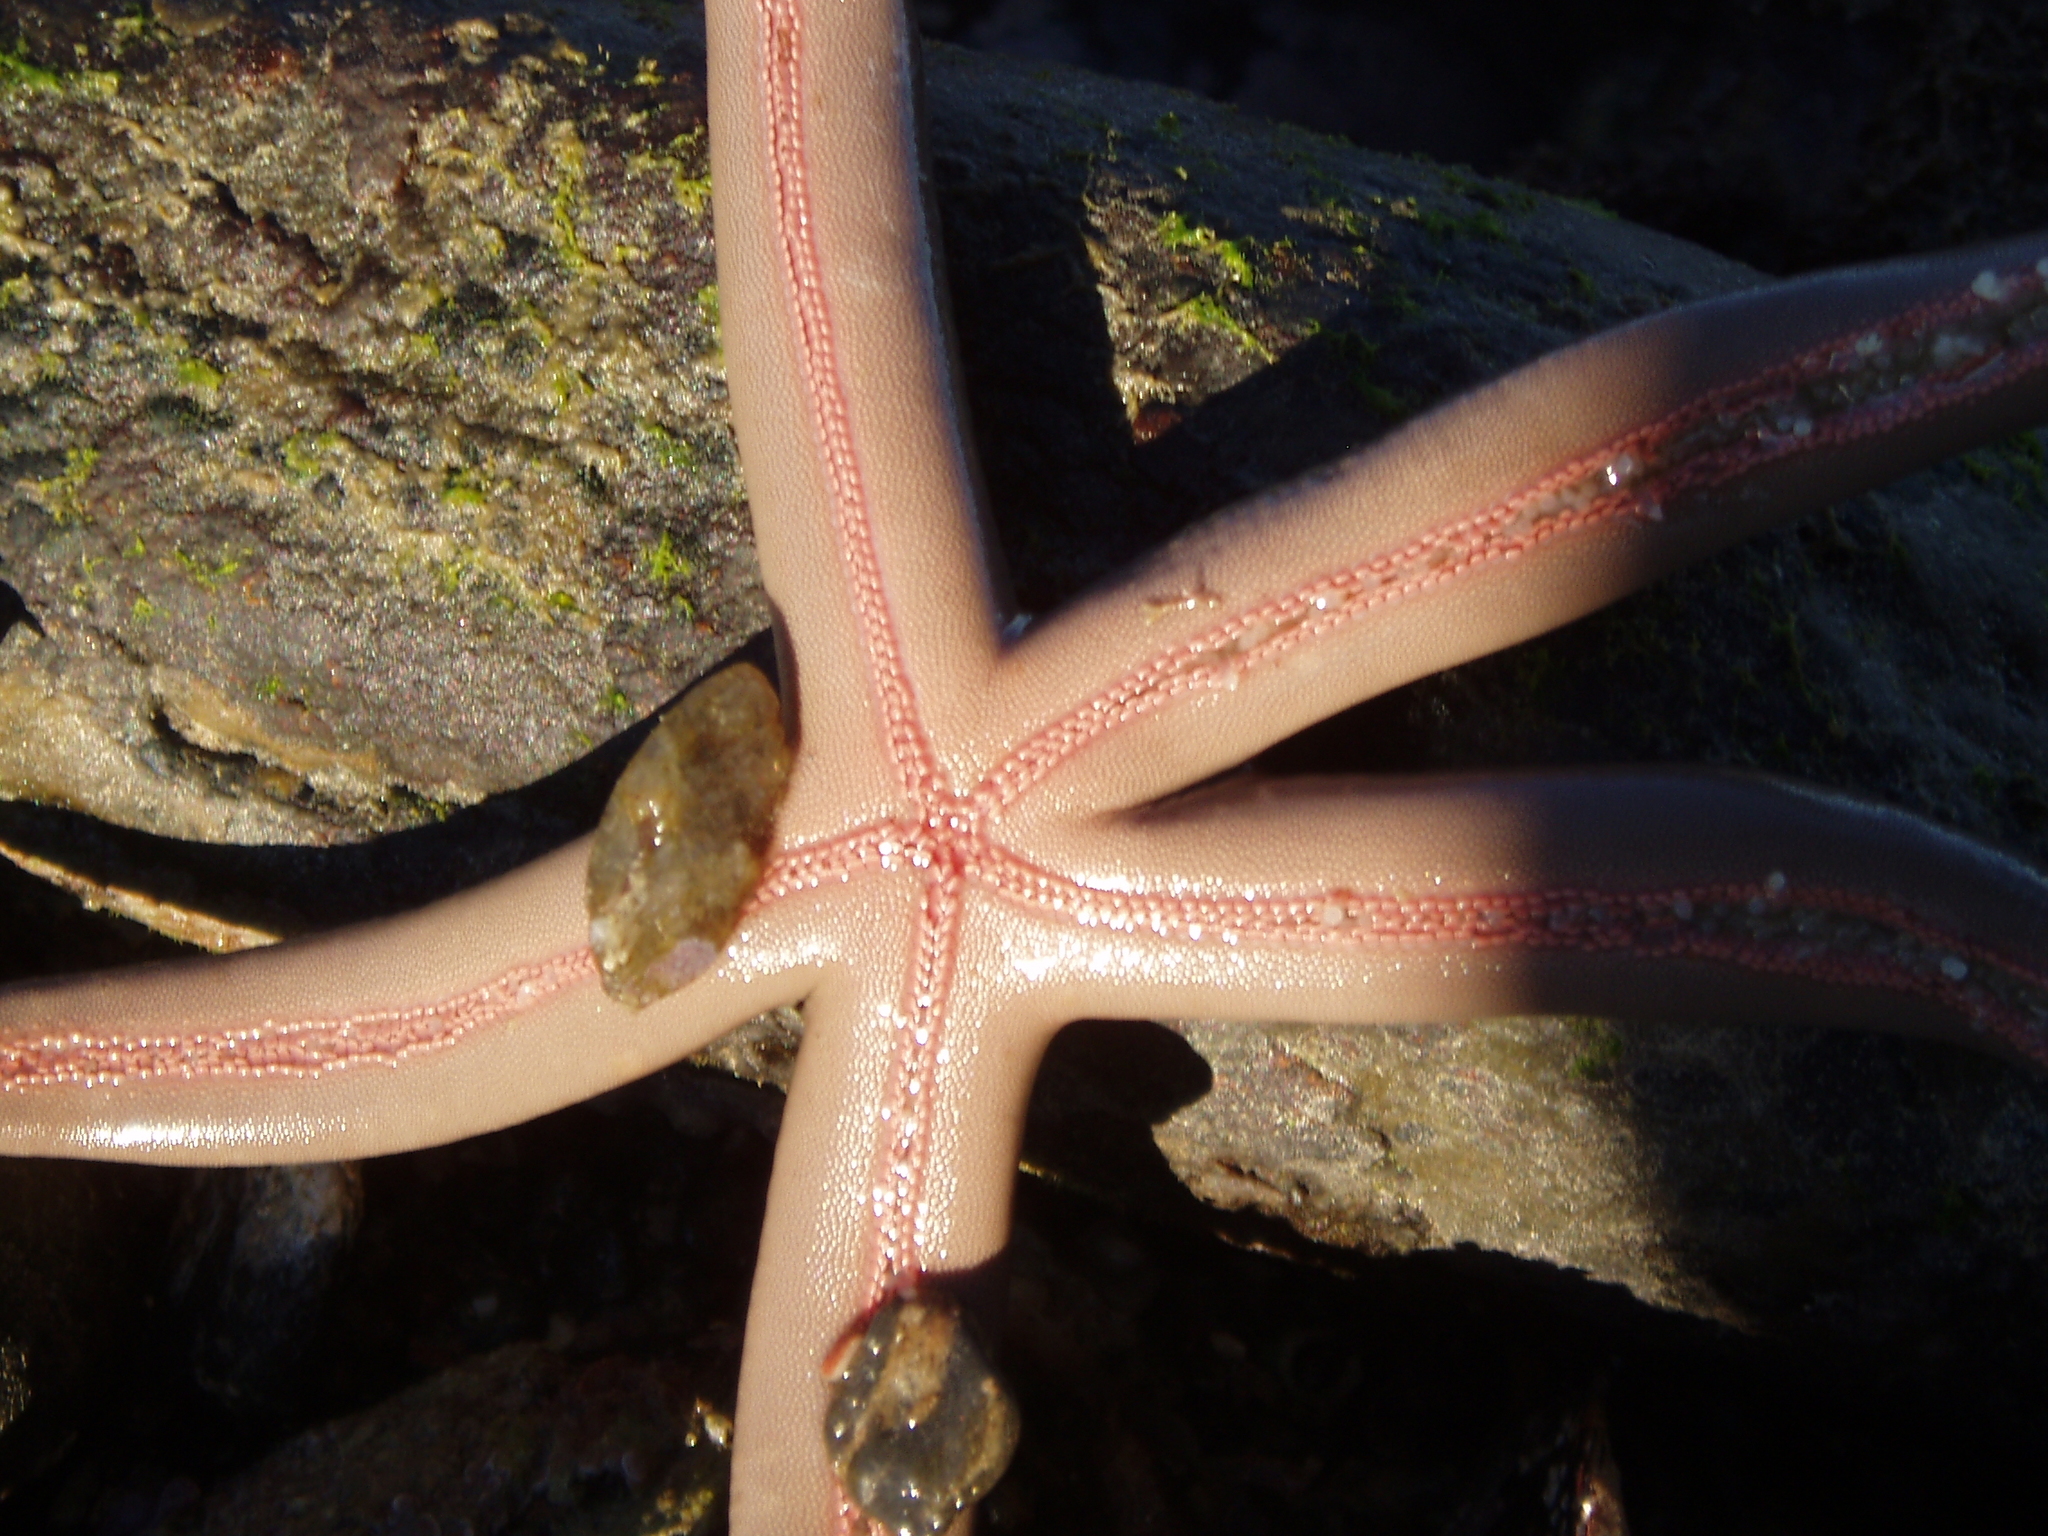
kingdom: Animalia
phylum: Echinodermata
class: Asteroidea
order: Valvatida
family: Ophidiasteridae
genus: Phataria
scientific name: Phataria unifascialis
